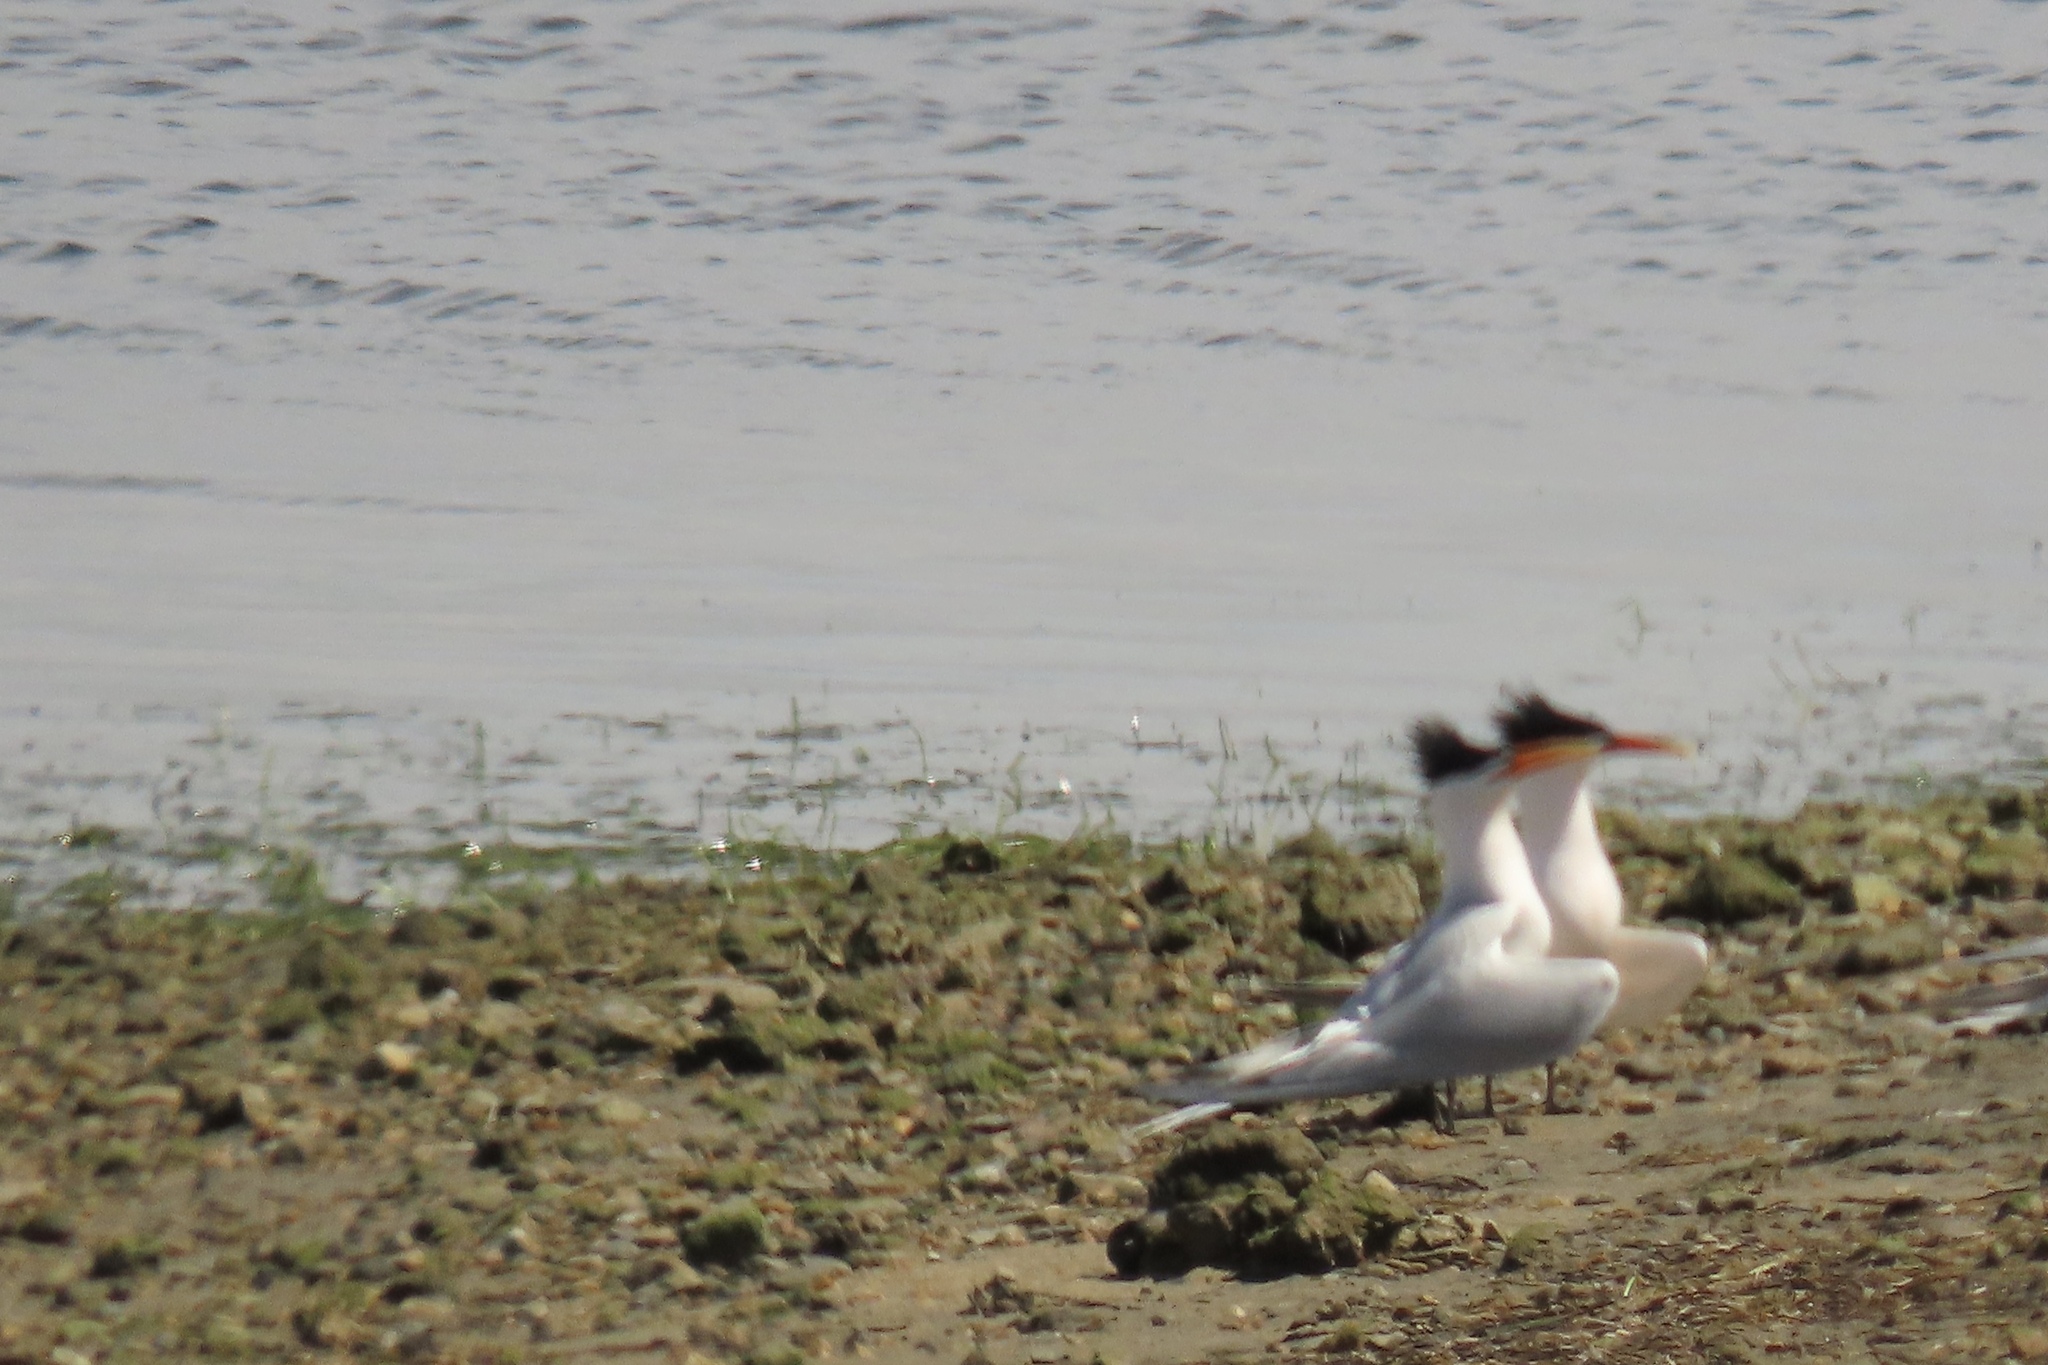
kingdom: Animalia
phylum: Chordata
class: Aves
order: Charadriiformes
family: Laridae
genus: Thalasseus
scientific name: Thalasseus elegans
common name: Elegant tern
